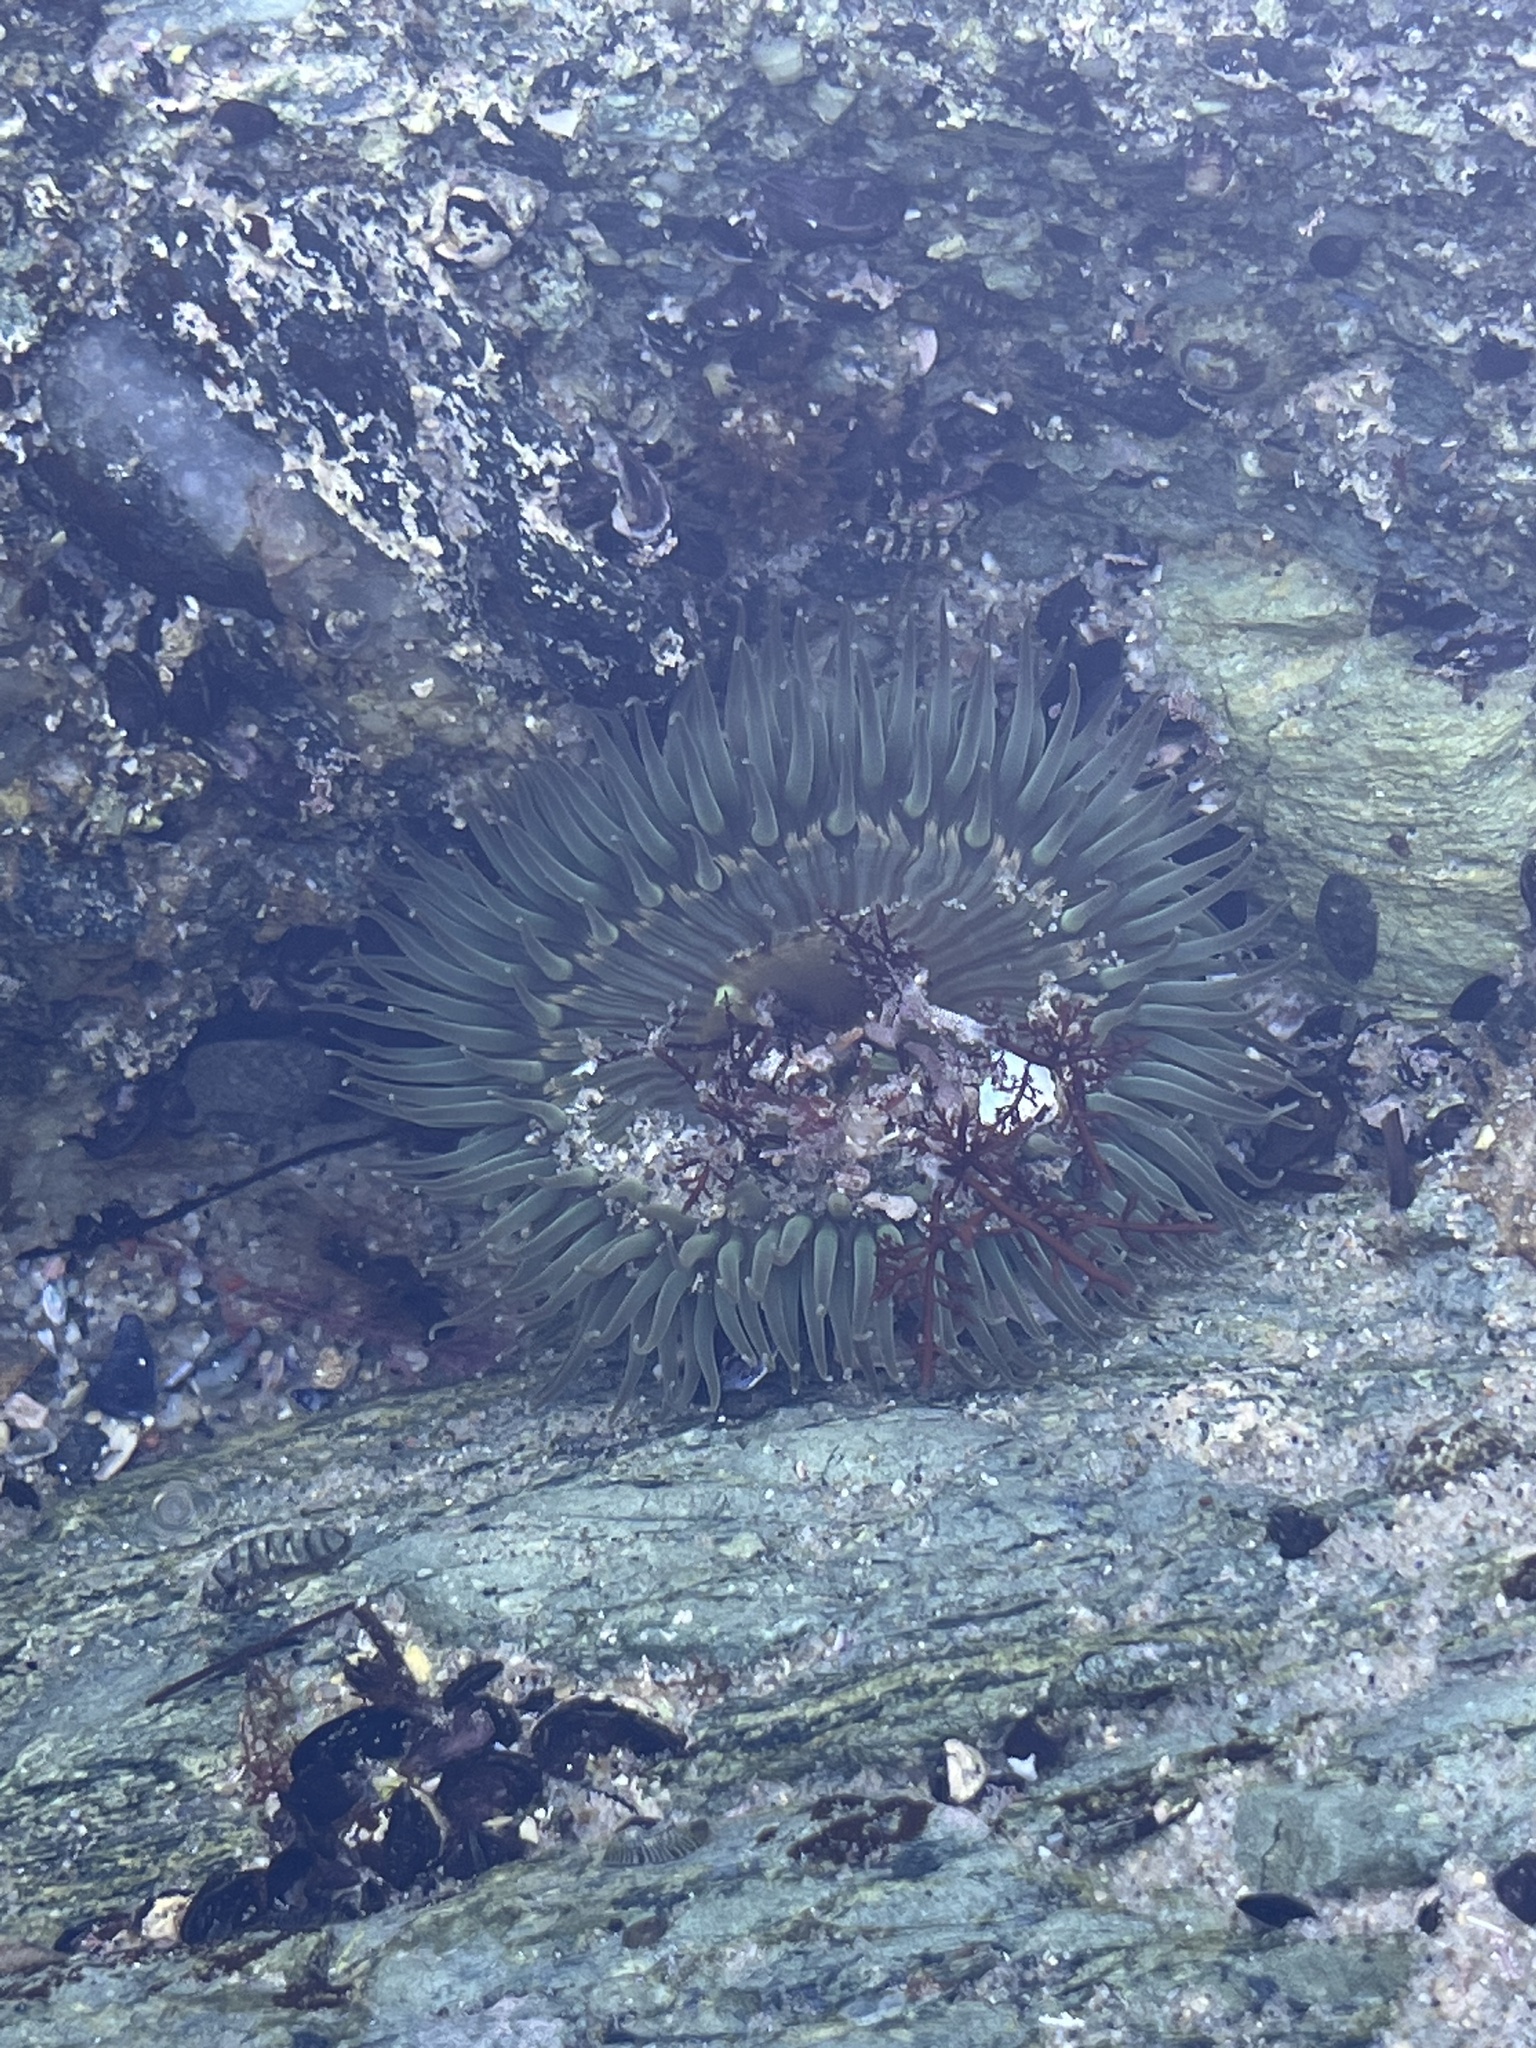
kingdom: Animalia
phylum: Cnidaria
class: Anthozoa
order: Actiniaria
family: Actiniidae
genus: Anthopleura
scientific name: Anthopleura sola
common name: Sun anemone
